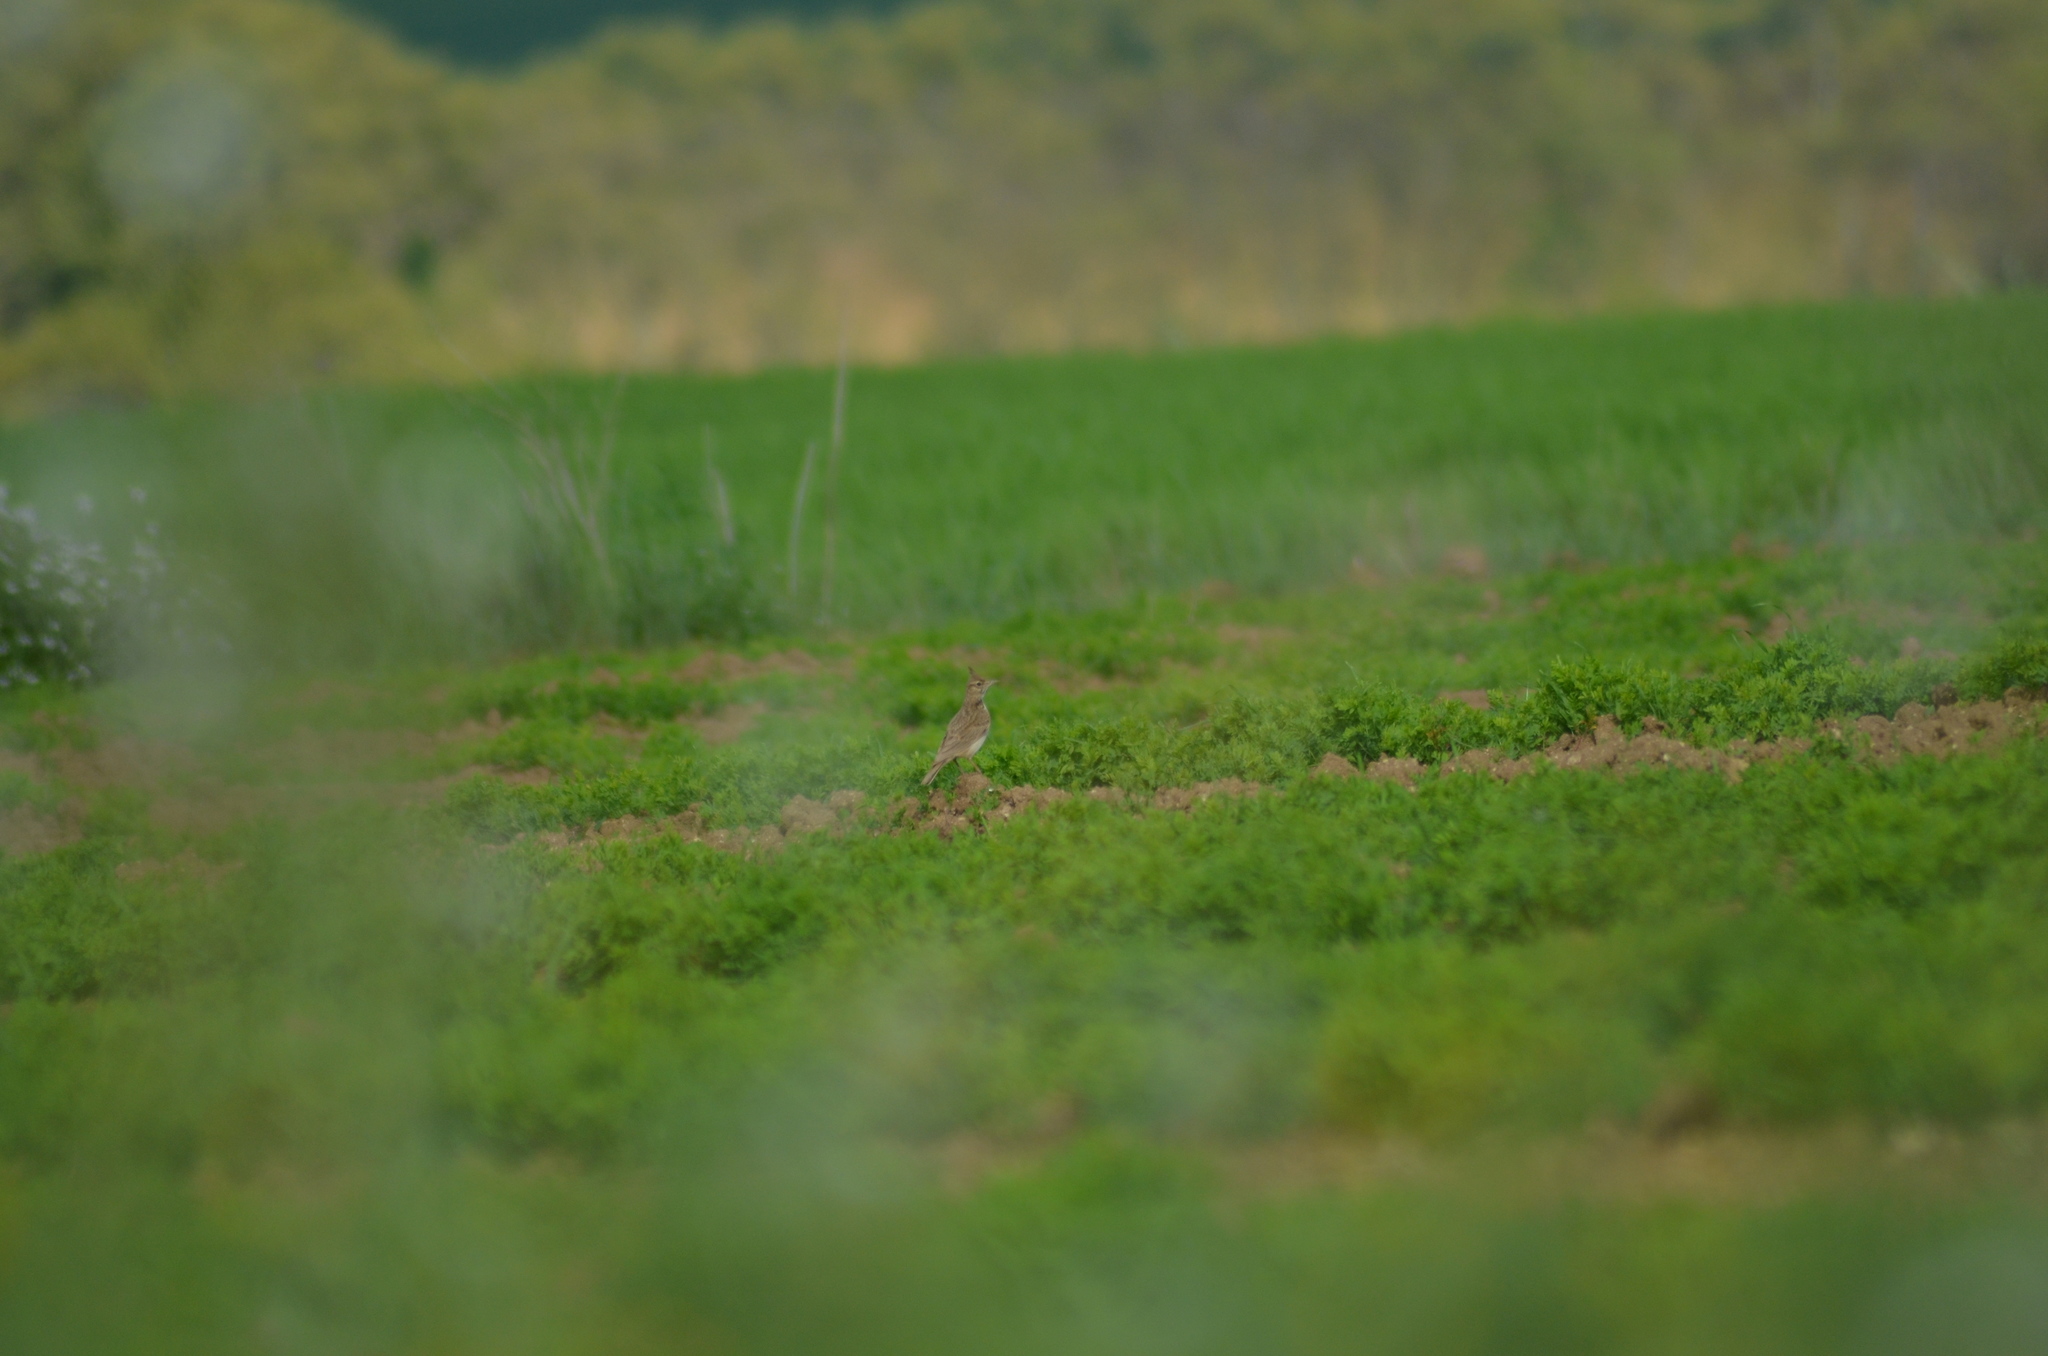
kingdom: Animalia
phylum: Chordata
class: Aves
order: Passeriformes
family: Alaudidae
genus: Galerida
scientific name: Galerida cristata
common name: Crested lark
